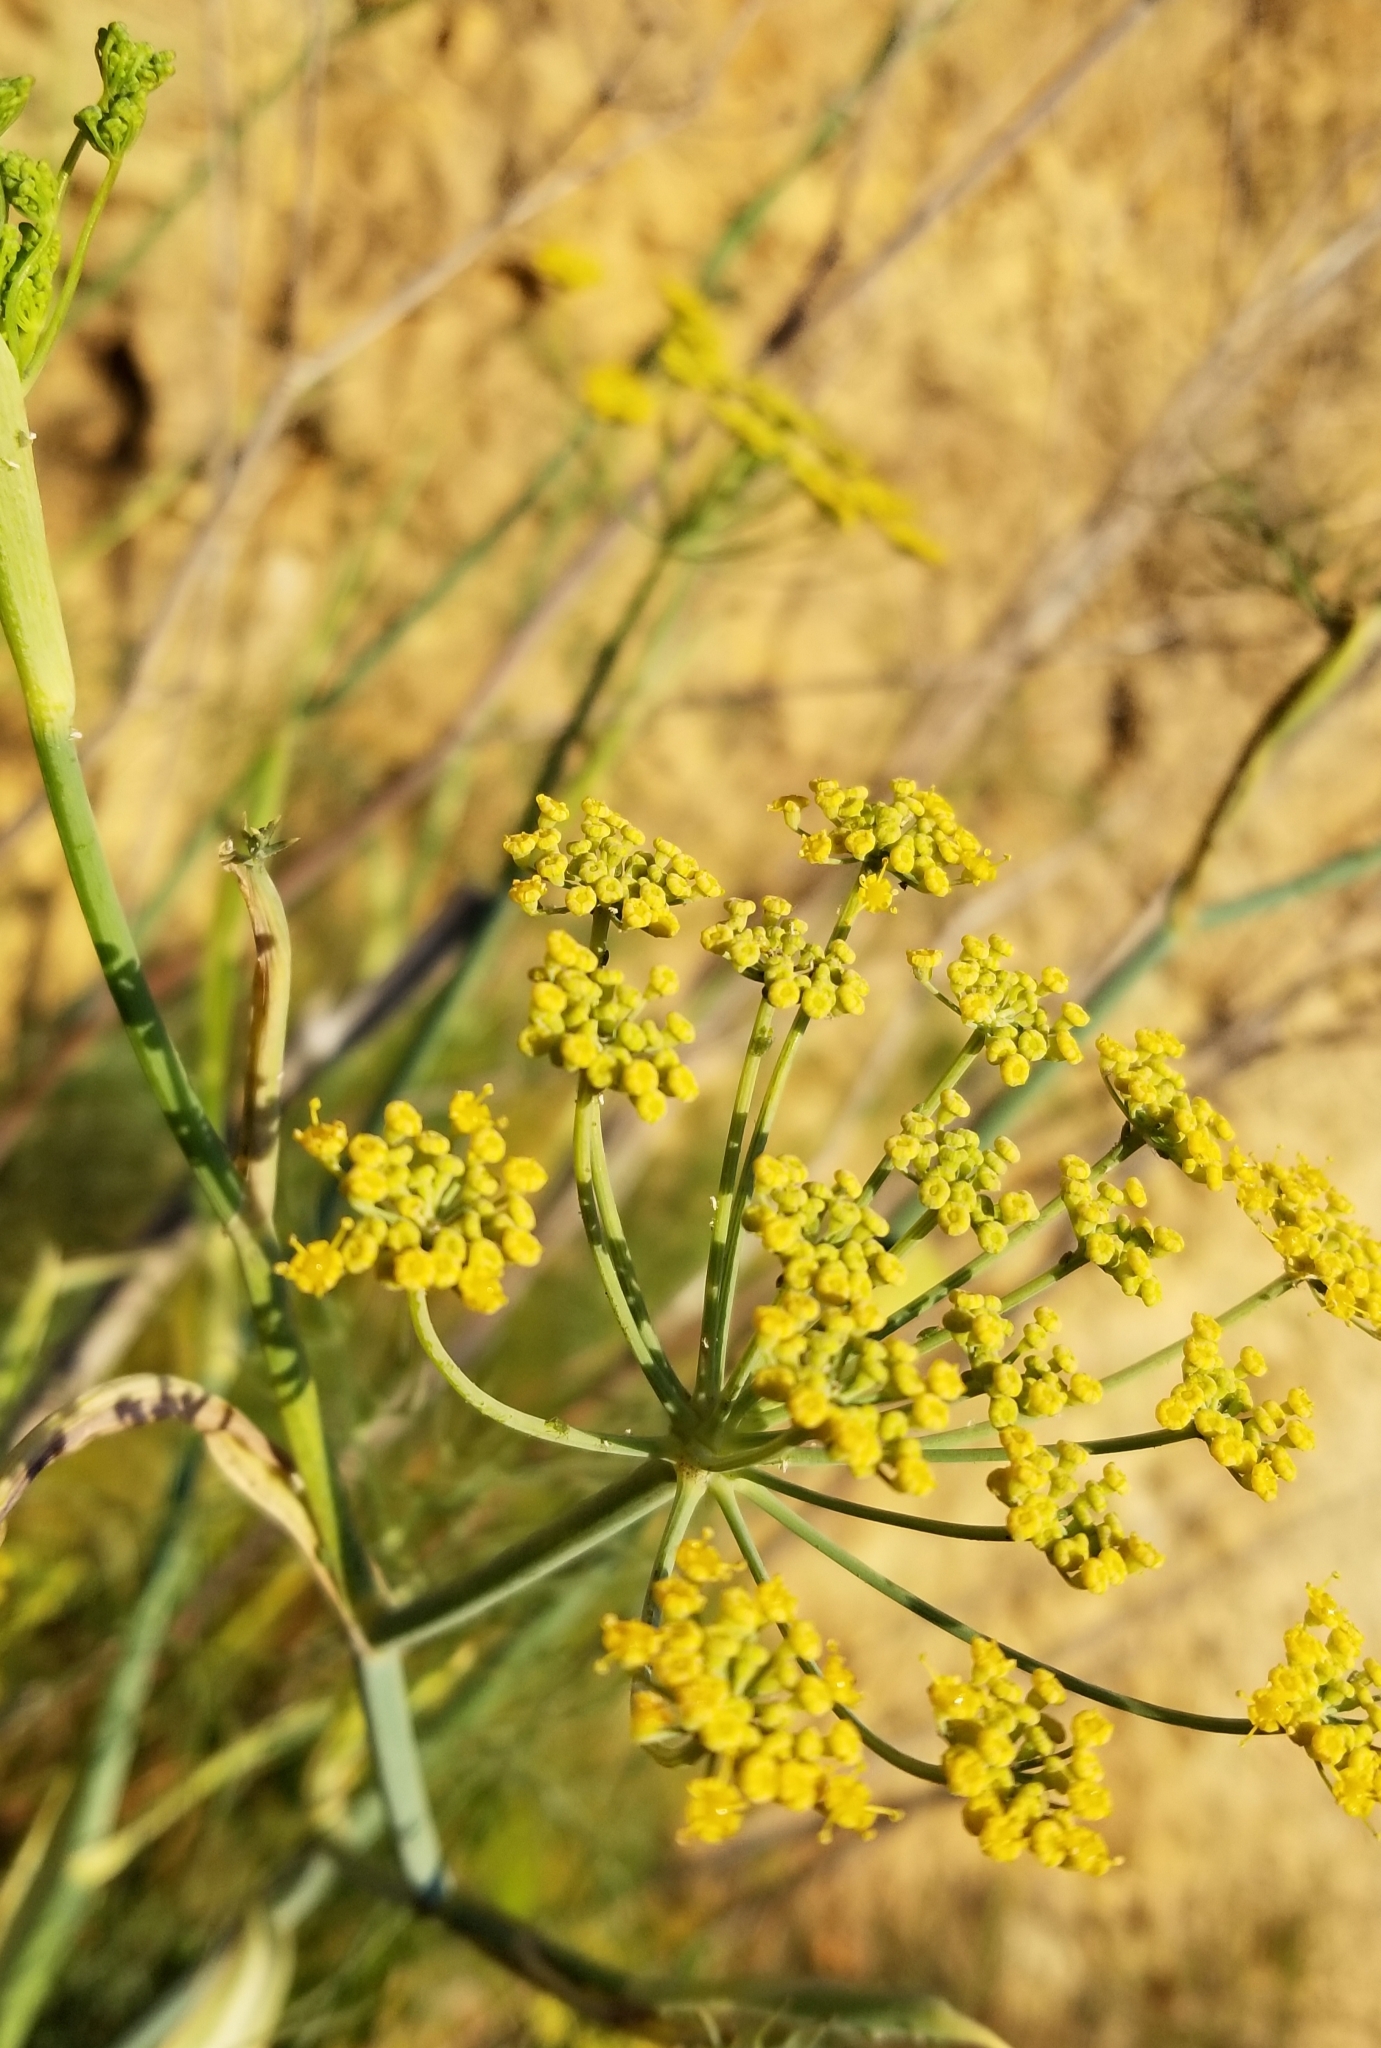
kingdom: Plantae
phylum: Tracheophyta
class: Magnoliopsida
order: Apiales
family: Apiaceae
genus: Foeniculum
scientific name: Foeniculum vulgare
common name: Fennel
